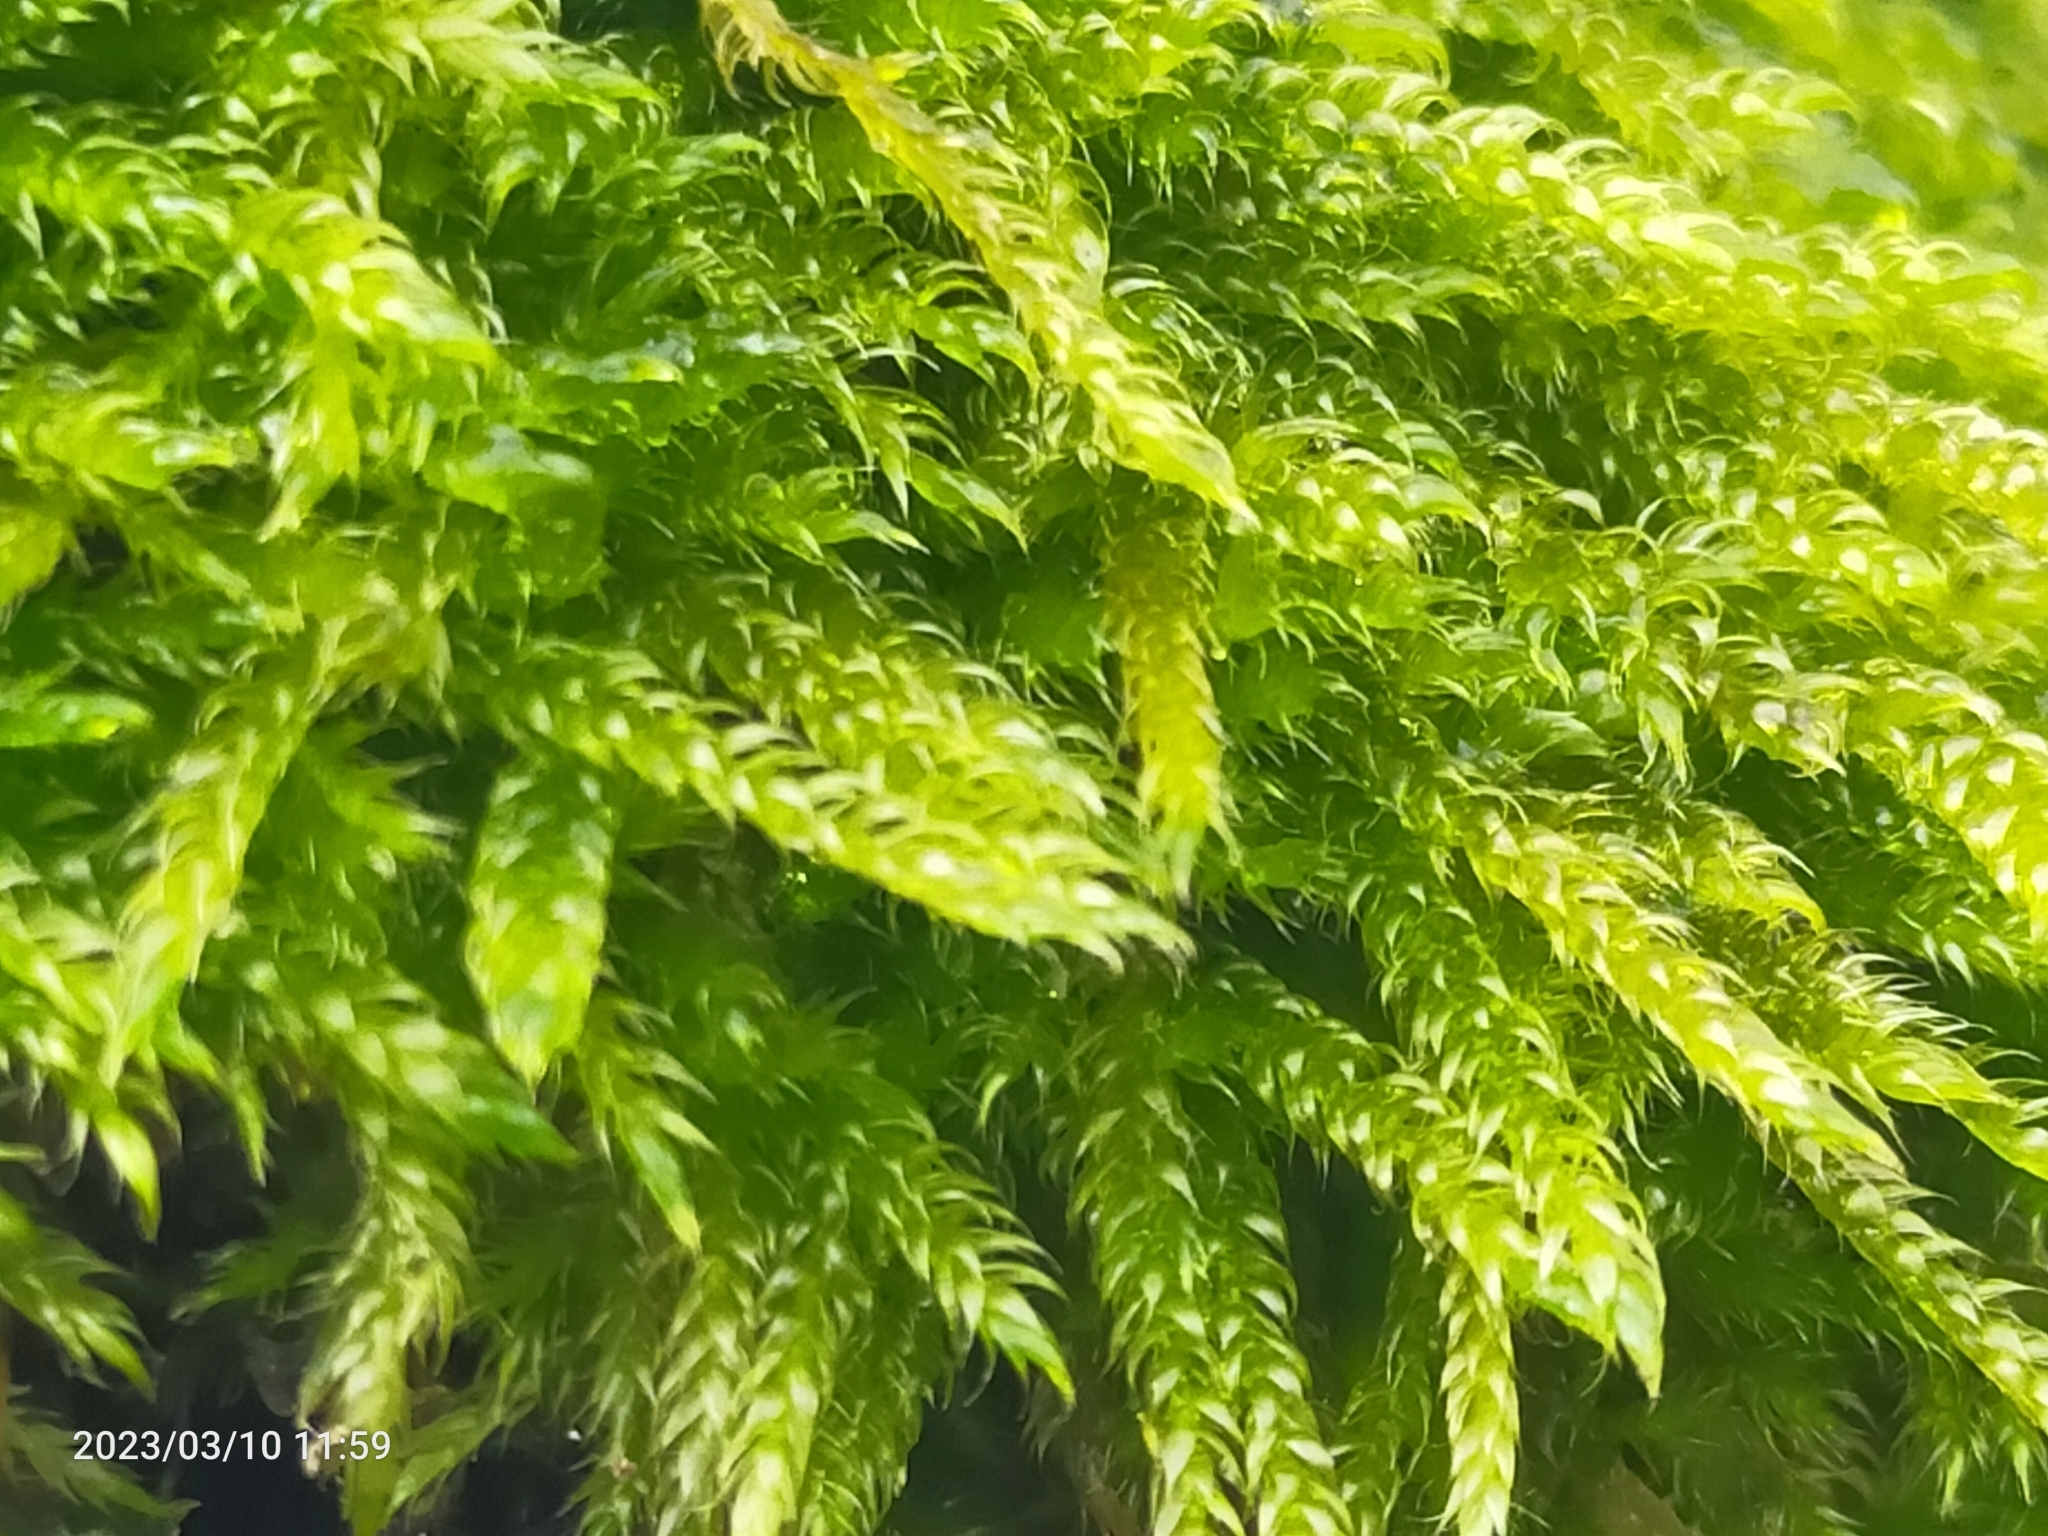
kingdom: Plantae
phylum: Bryophyta
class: Bryopsida
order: Hypnales
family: Hypnaceae
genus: Hypnum
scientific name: Hypnum cupressiforme
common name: Cypress-leaved plait-moss
